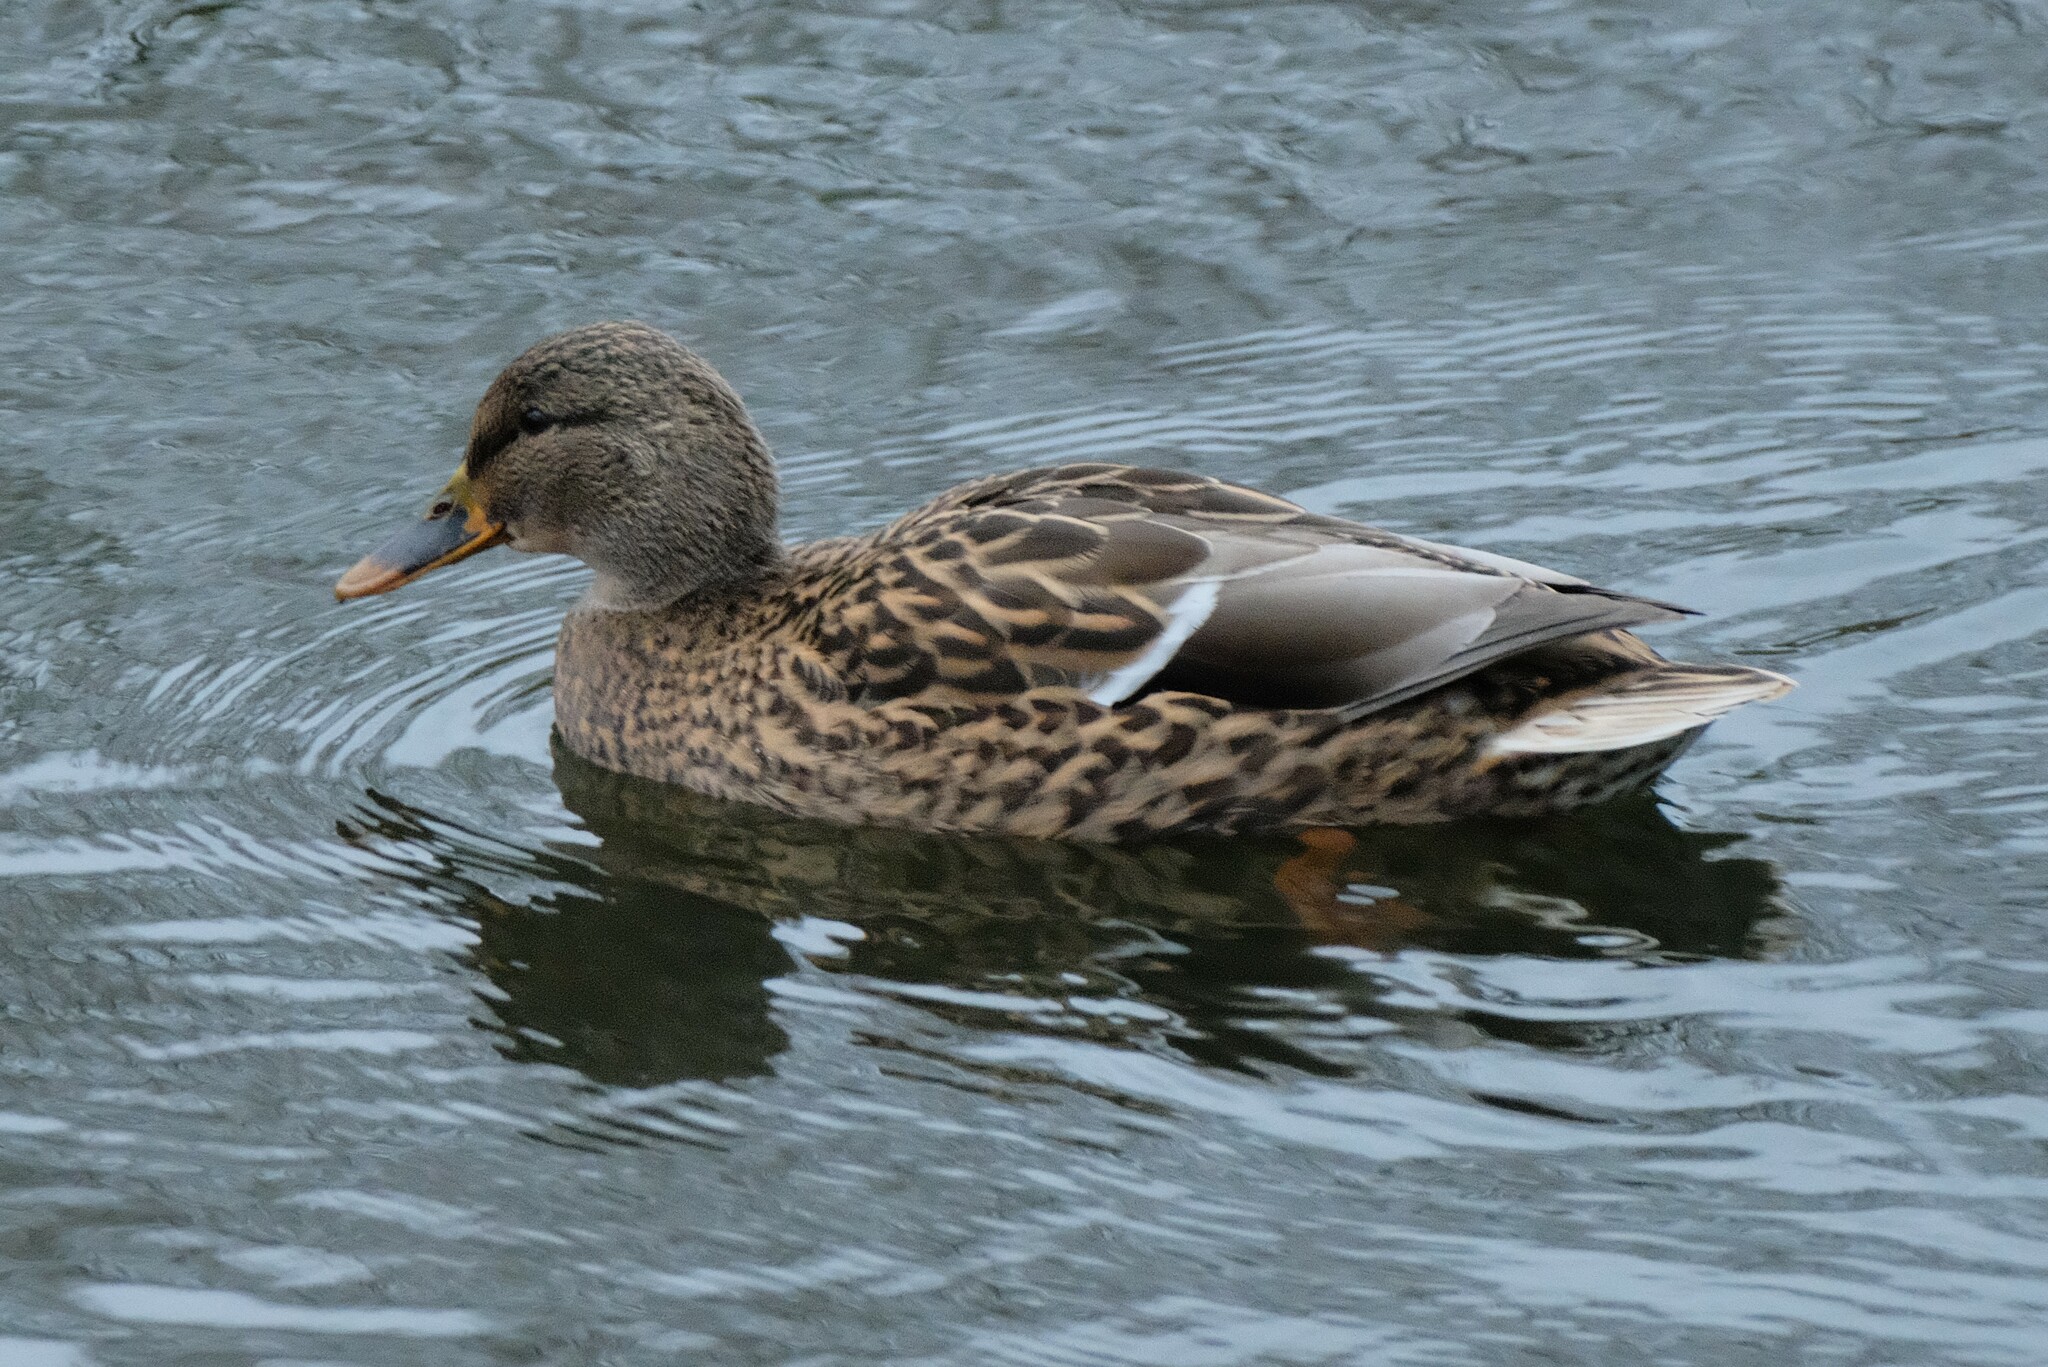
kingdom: Animalia
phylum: Chordata
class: Aves
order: Anseriformes
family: Anatidae
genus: Anas
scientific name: Anas platyrhynchos
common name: Mallard
